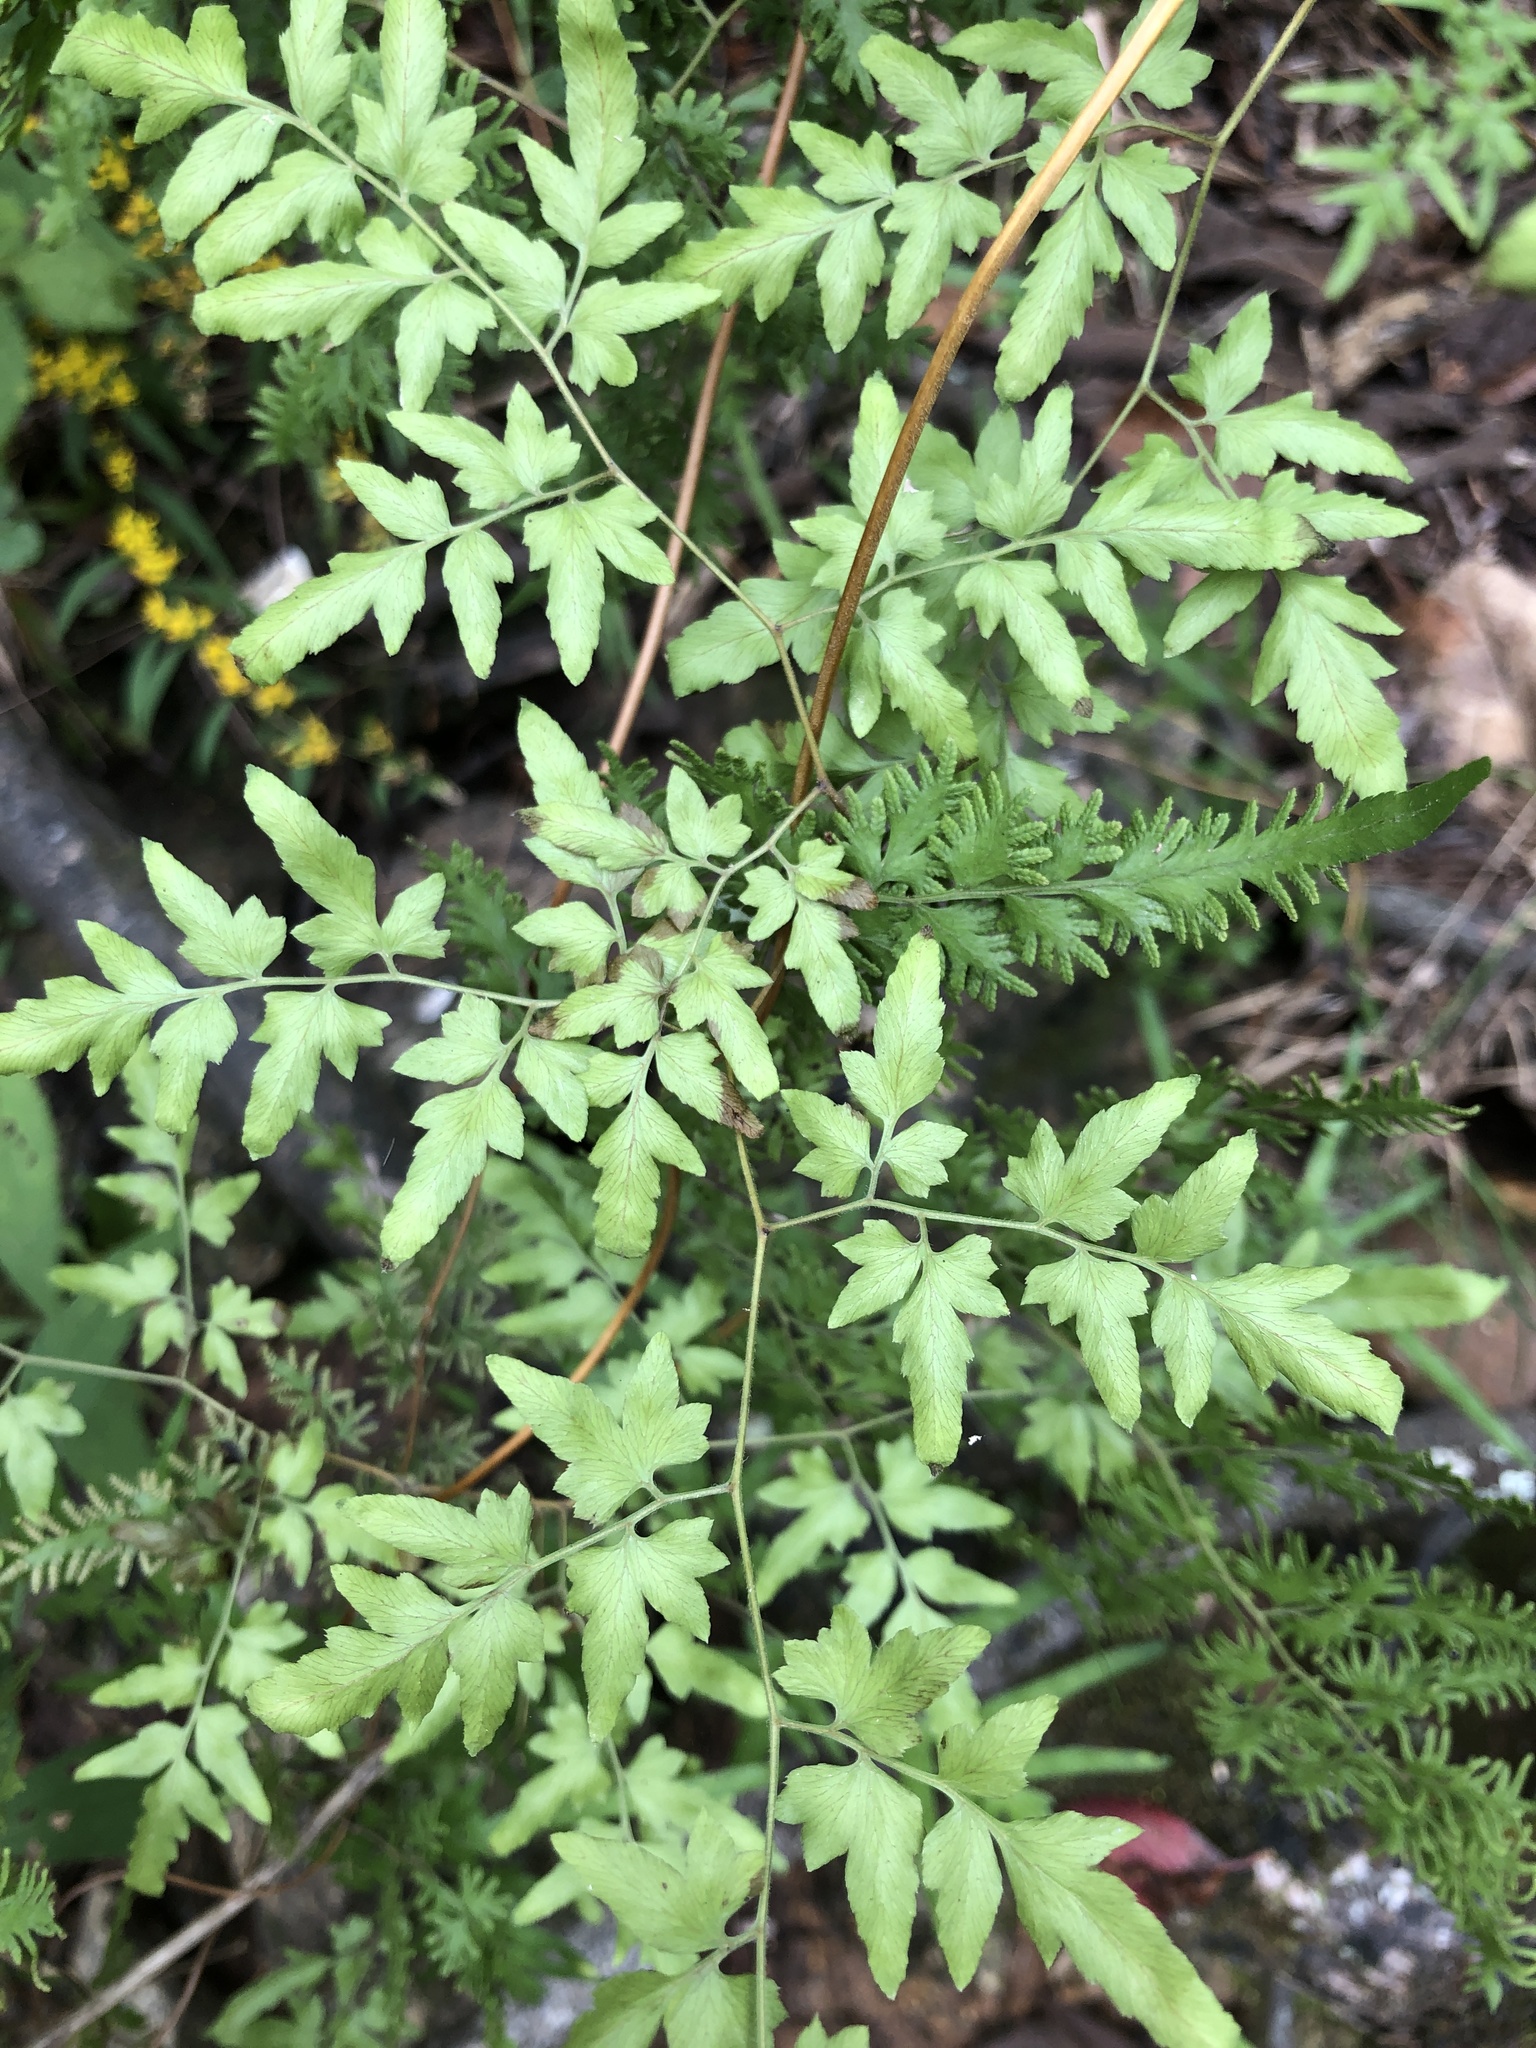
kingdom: Plantae
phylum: Tracheophyta
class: Polypodiopsida
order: Schizaeales
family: Lygodiaceae
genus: Lygodium
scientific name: Lygodium japonicum
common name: Japanese climbing fern
